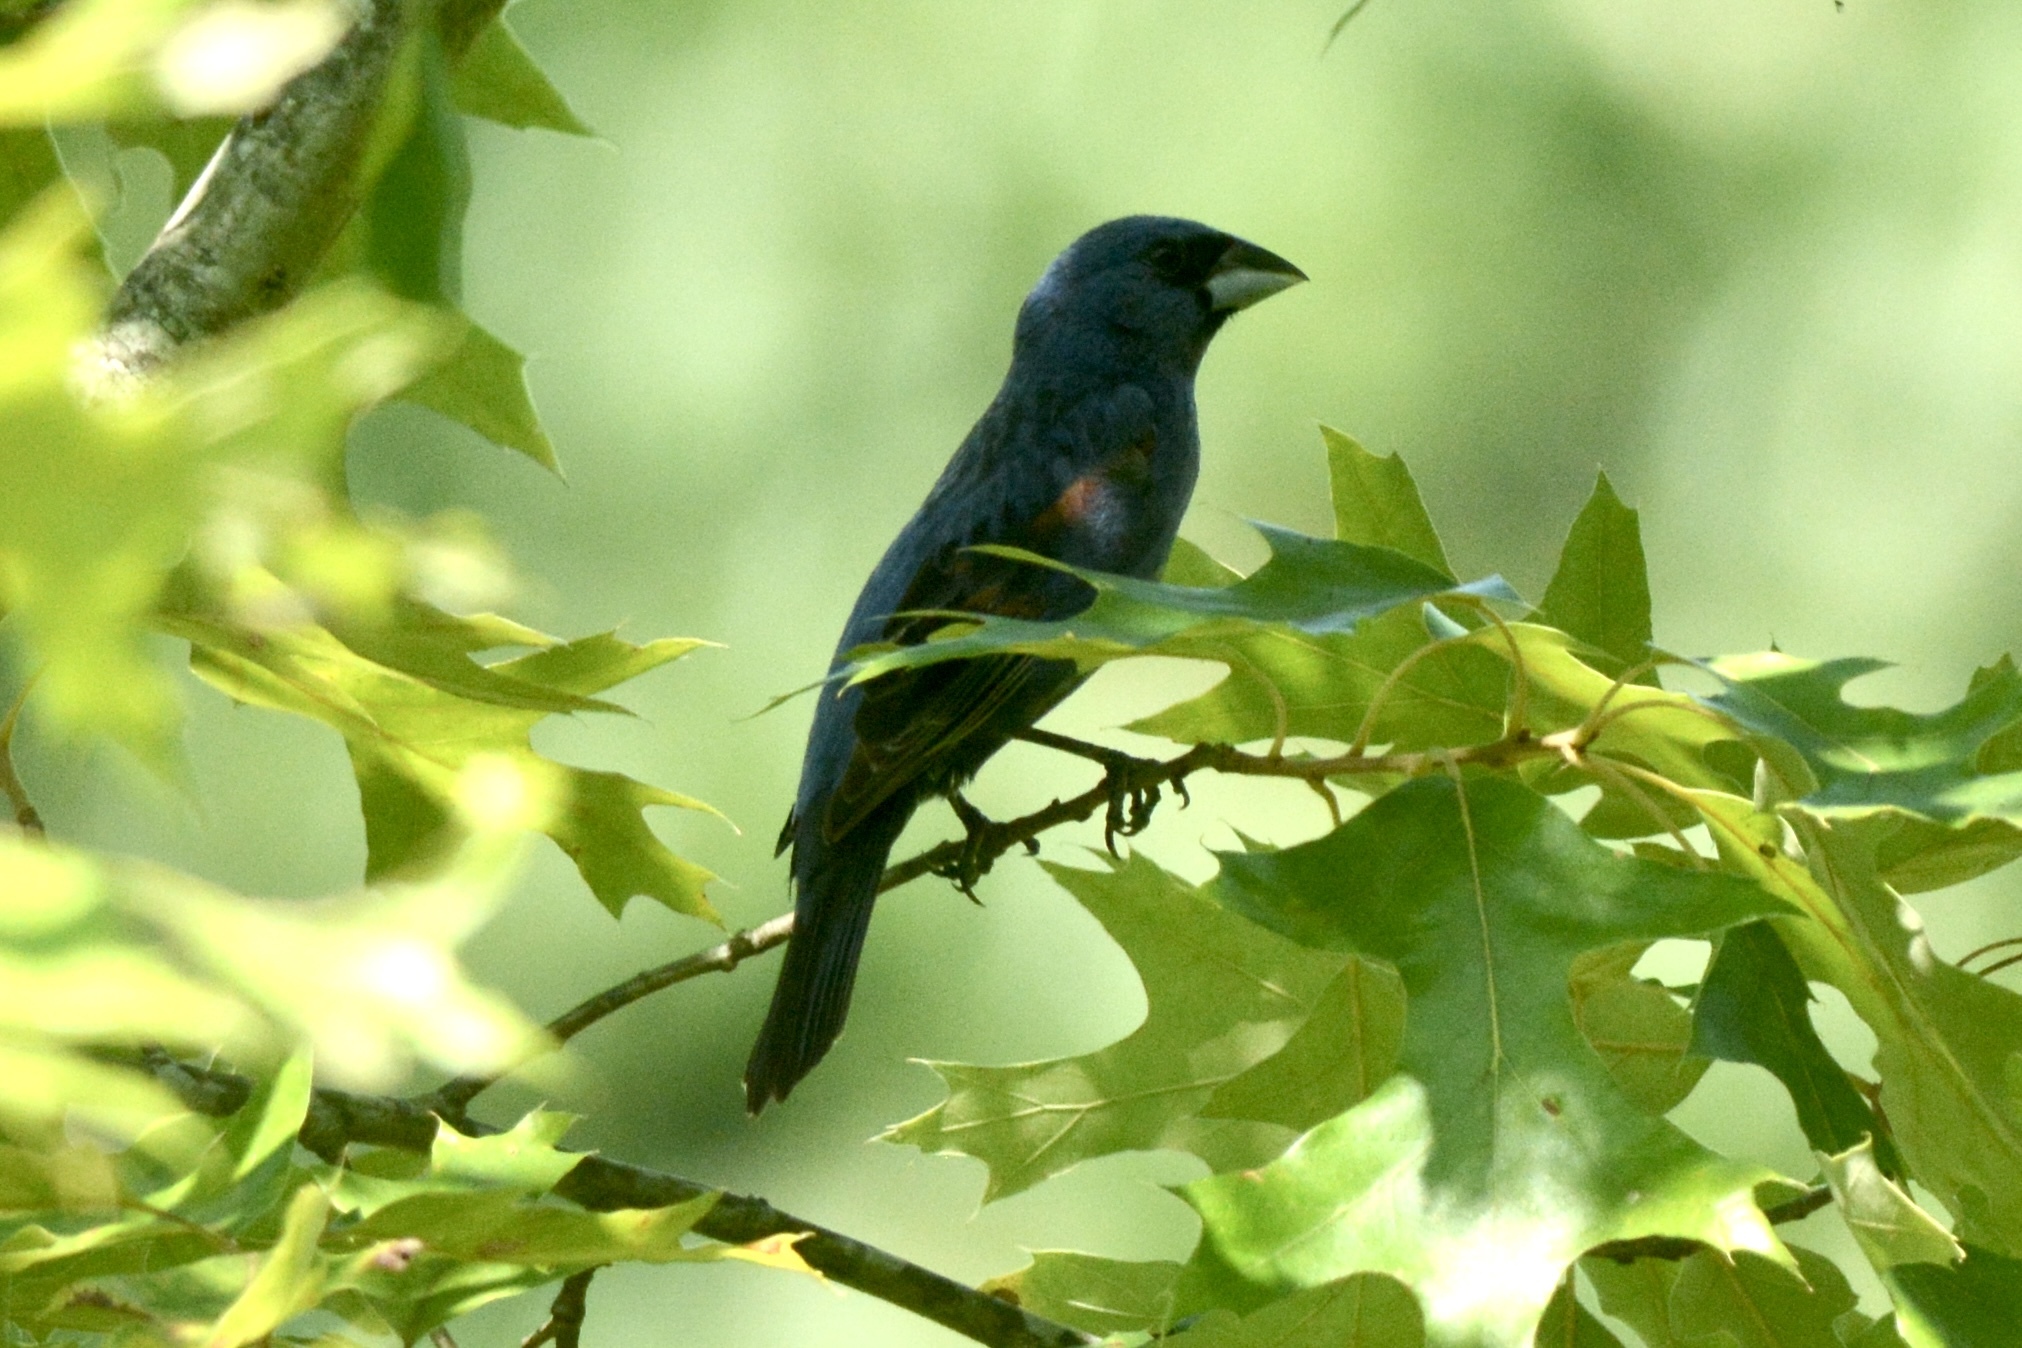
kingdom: Animalia
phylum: Chordata
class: Aves
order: Passeriformes
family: Cardinalidae
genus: Passerina
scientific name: Passerina caerulea
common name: Blue grosbeak
